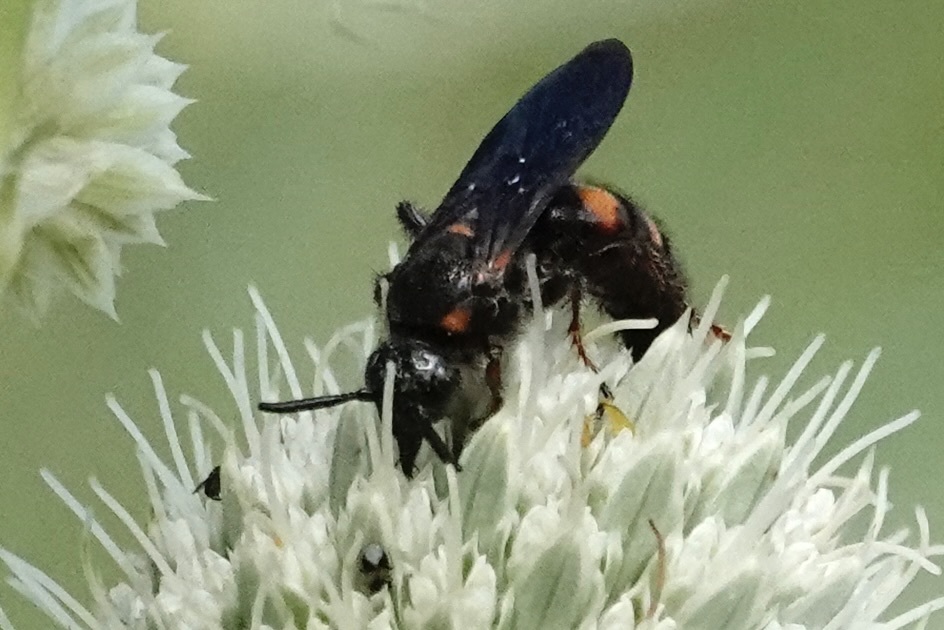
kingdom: Animalia
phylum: Arthropoda
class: Insecta
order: Hymenoptera
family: Scoliidae
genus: Scolia
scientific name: Scolia nobilitata
